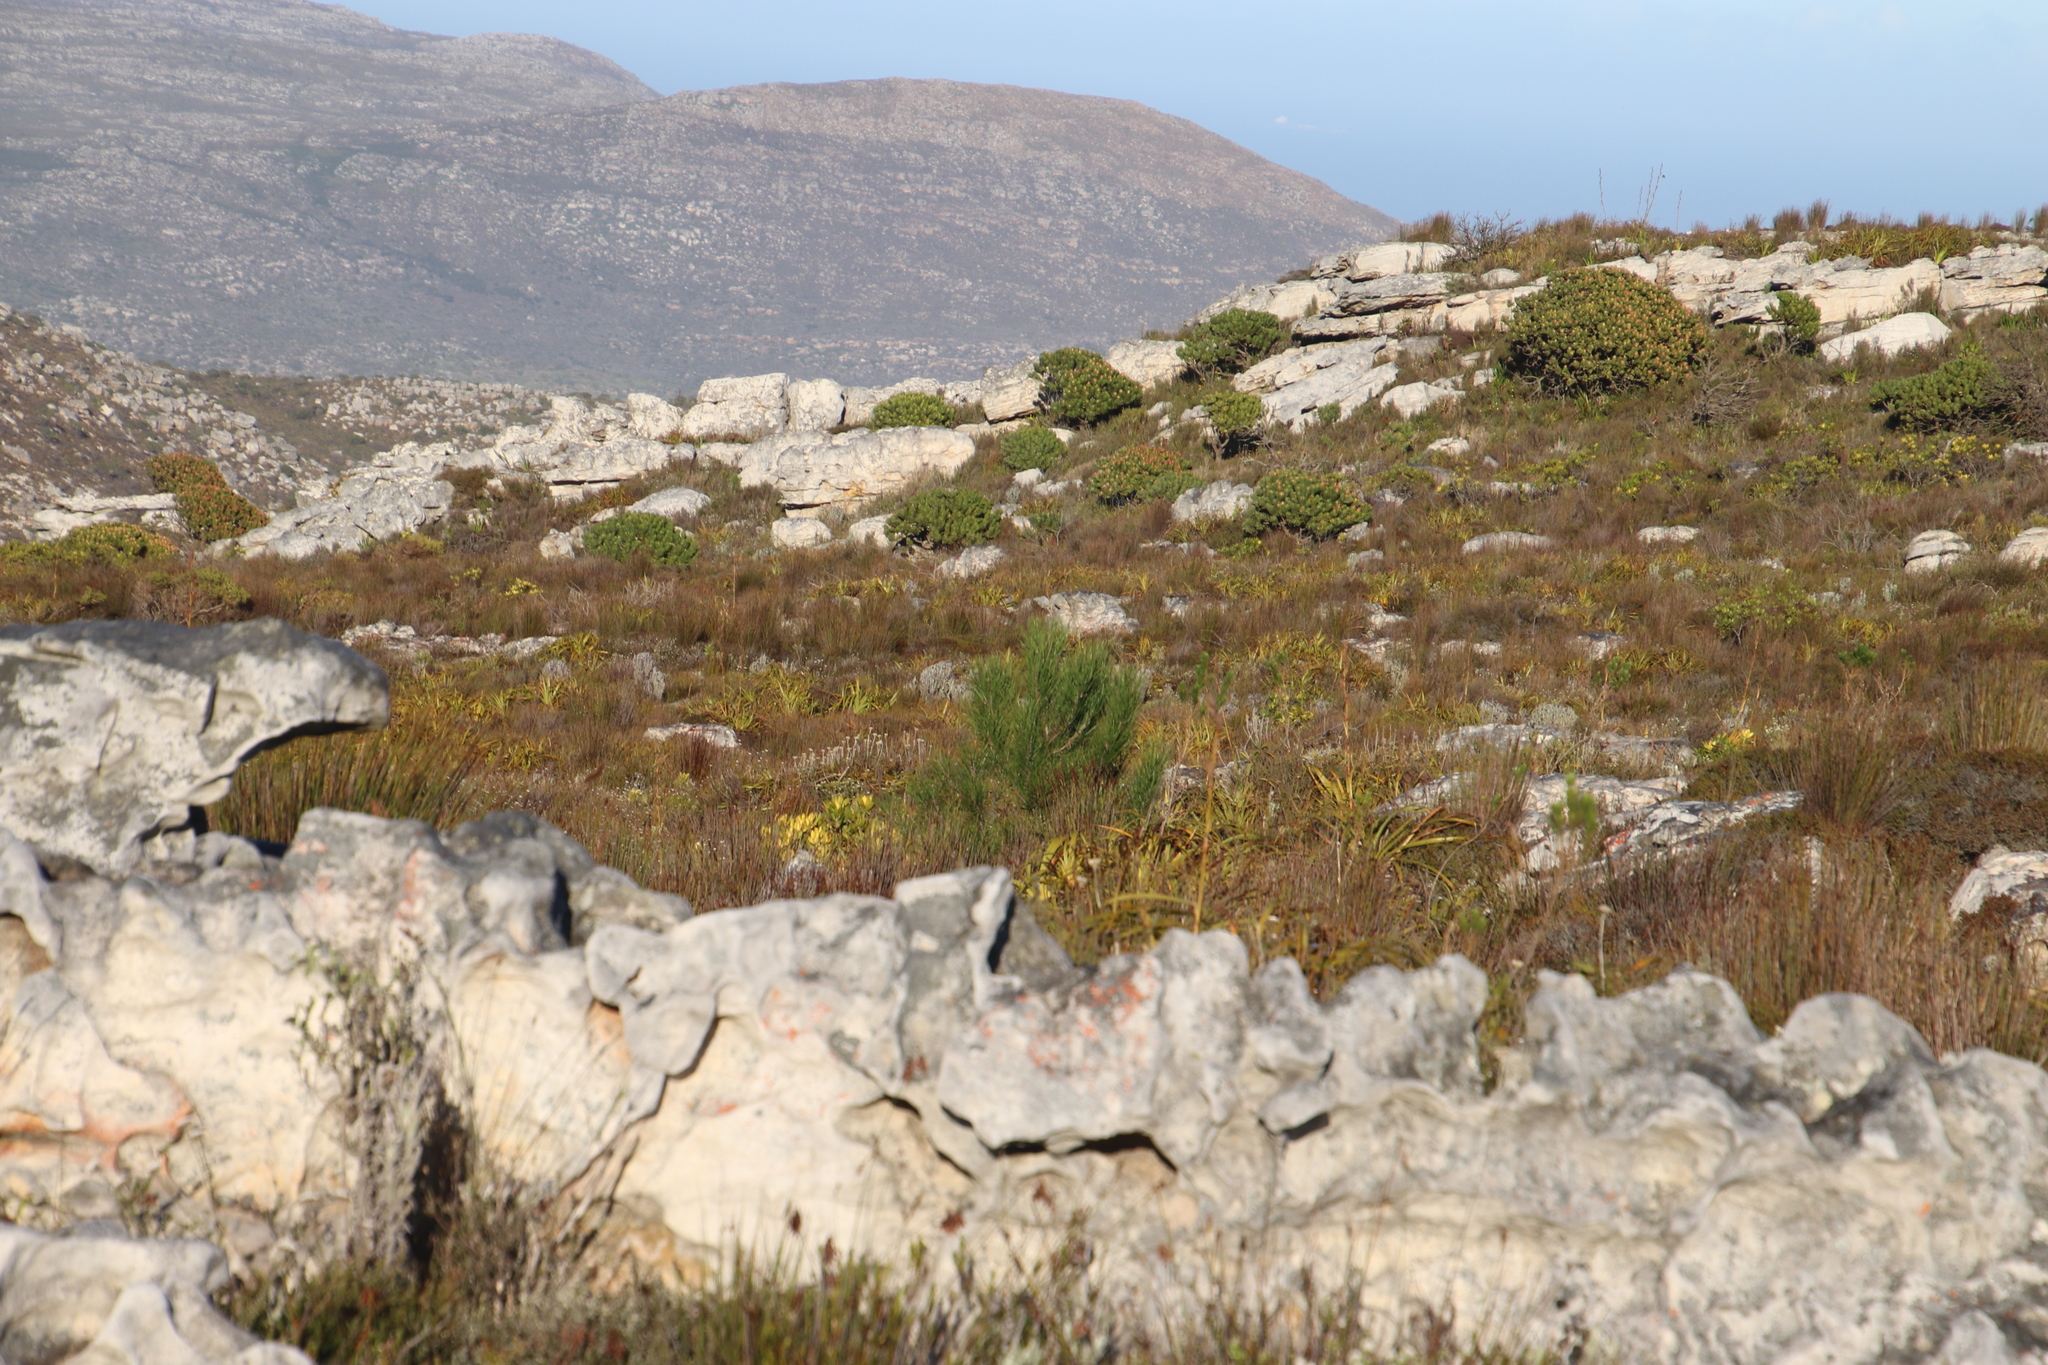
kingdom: Plantae
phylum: Tracheophyta
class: Pinopsida
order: Pinales
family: Pinaceae
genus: Pinus
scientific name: Pinus radiata
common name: Monterey pine
